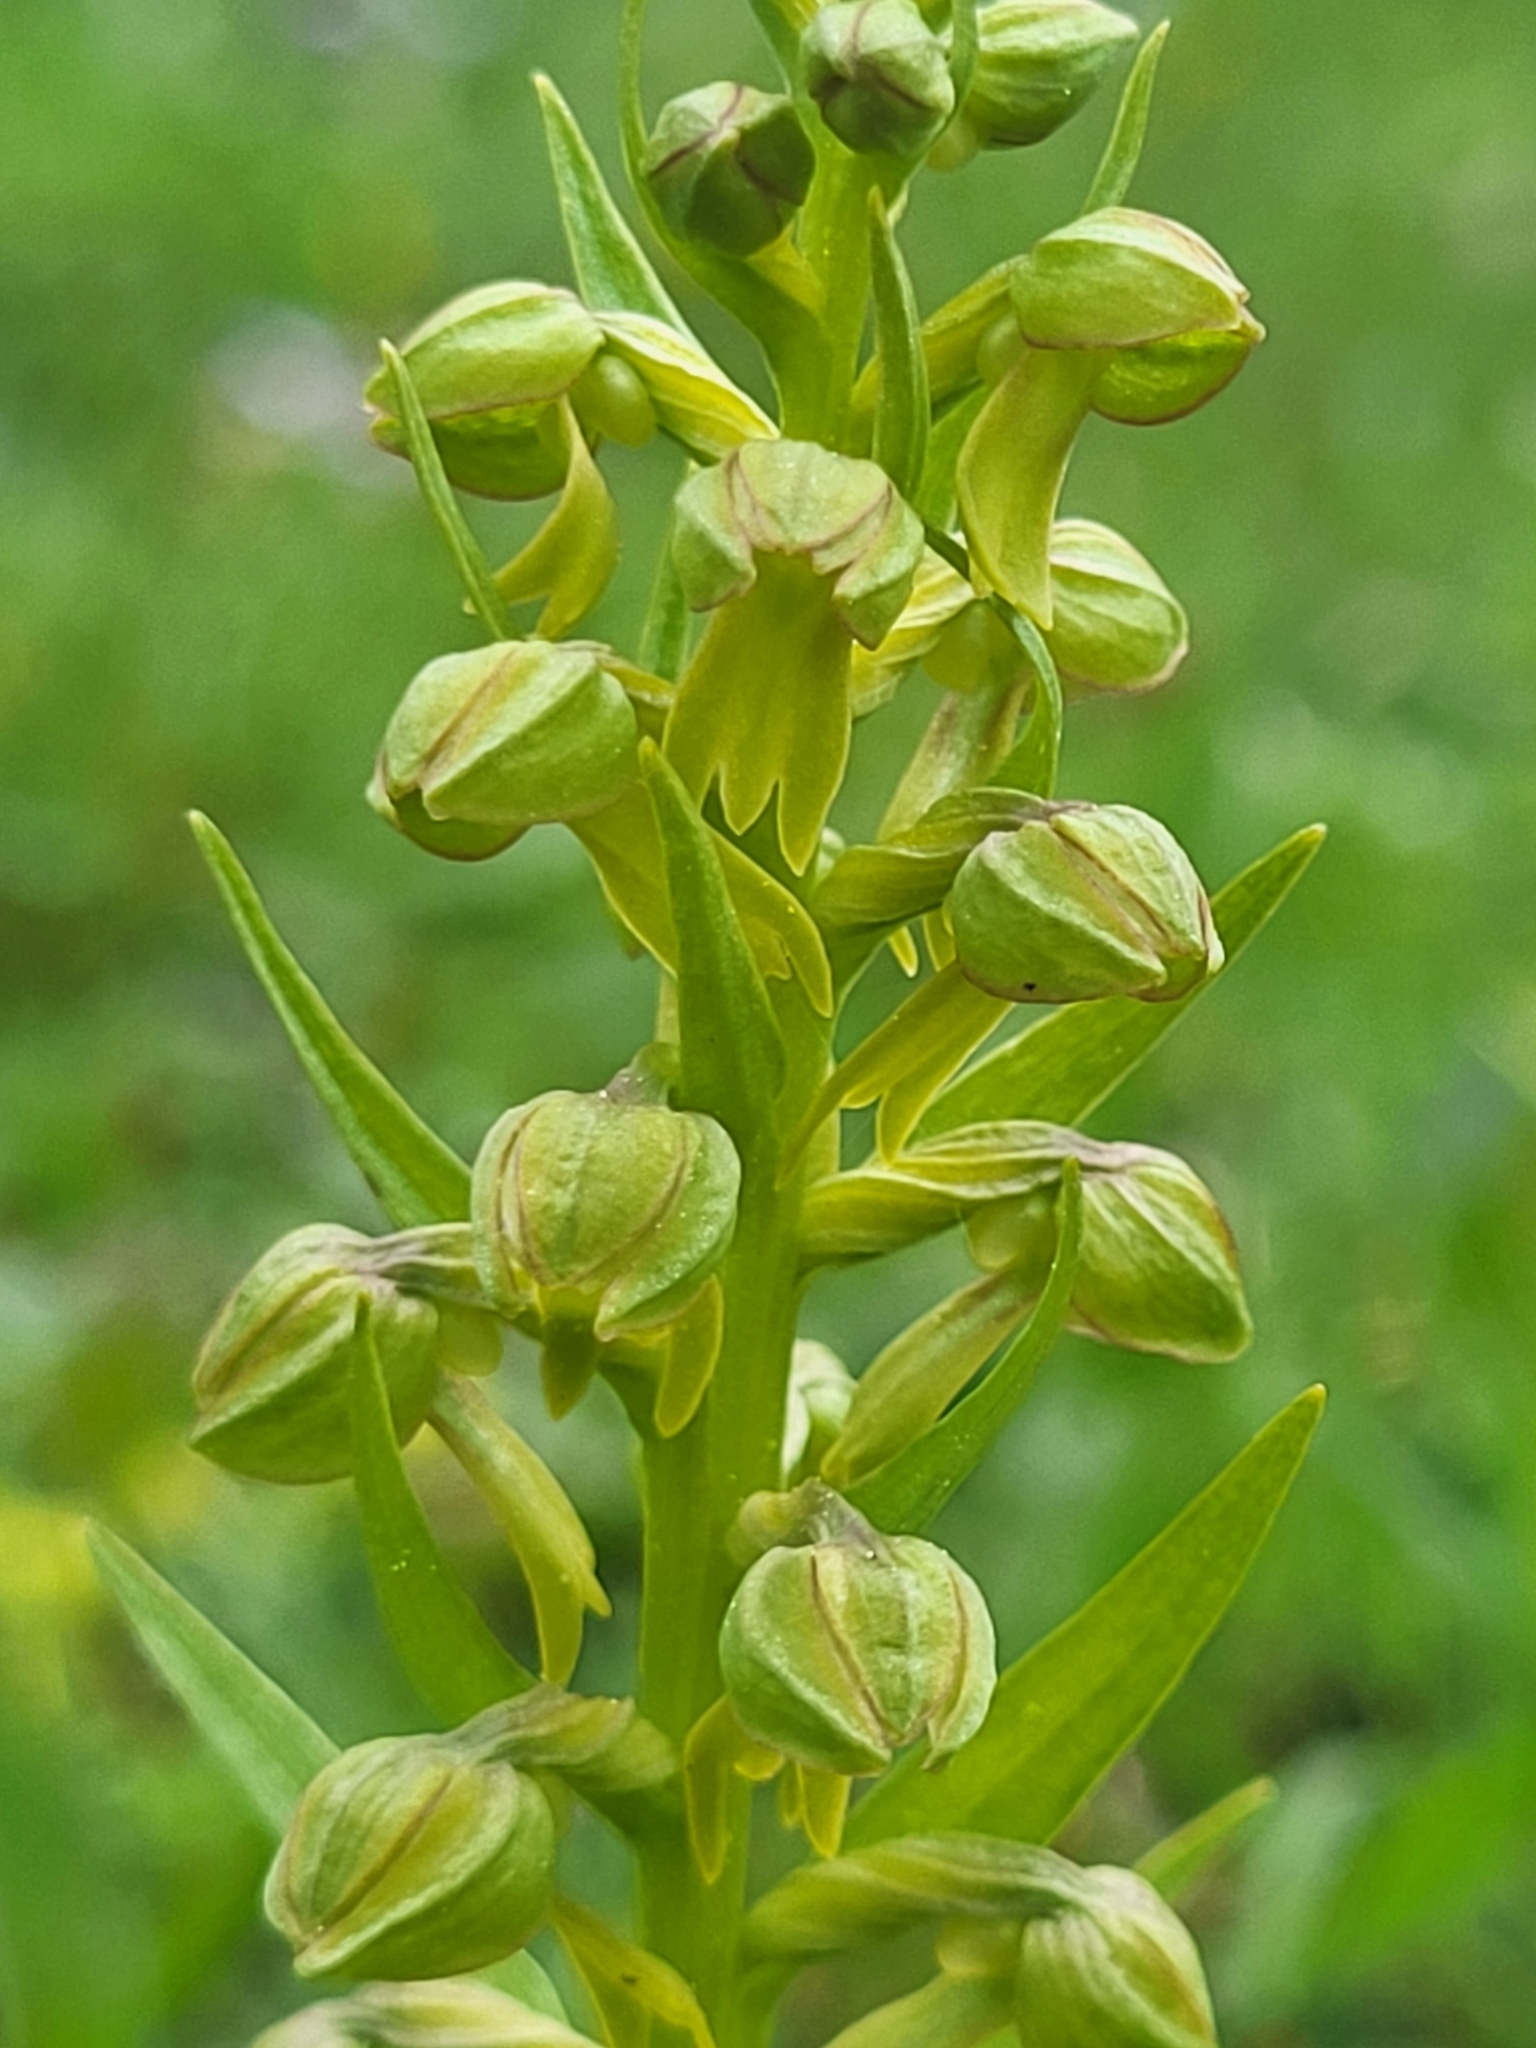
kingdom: Plantae
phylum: Tracheophyta
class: Liliopsida
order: Asparagales
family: Orchidaceae
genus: Dactylorhiza
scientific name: Dactylorhiza viridis
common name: Longbract frog orchid
